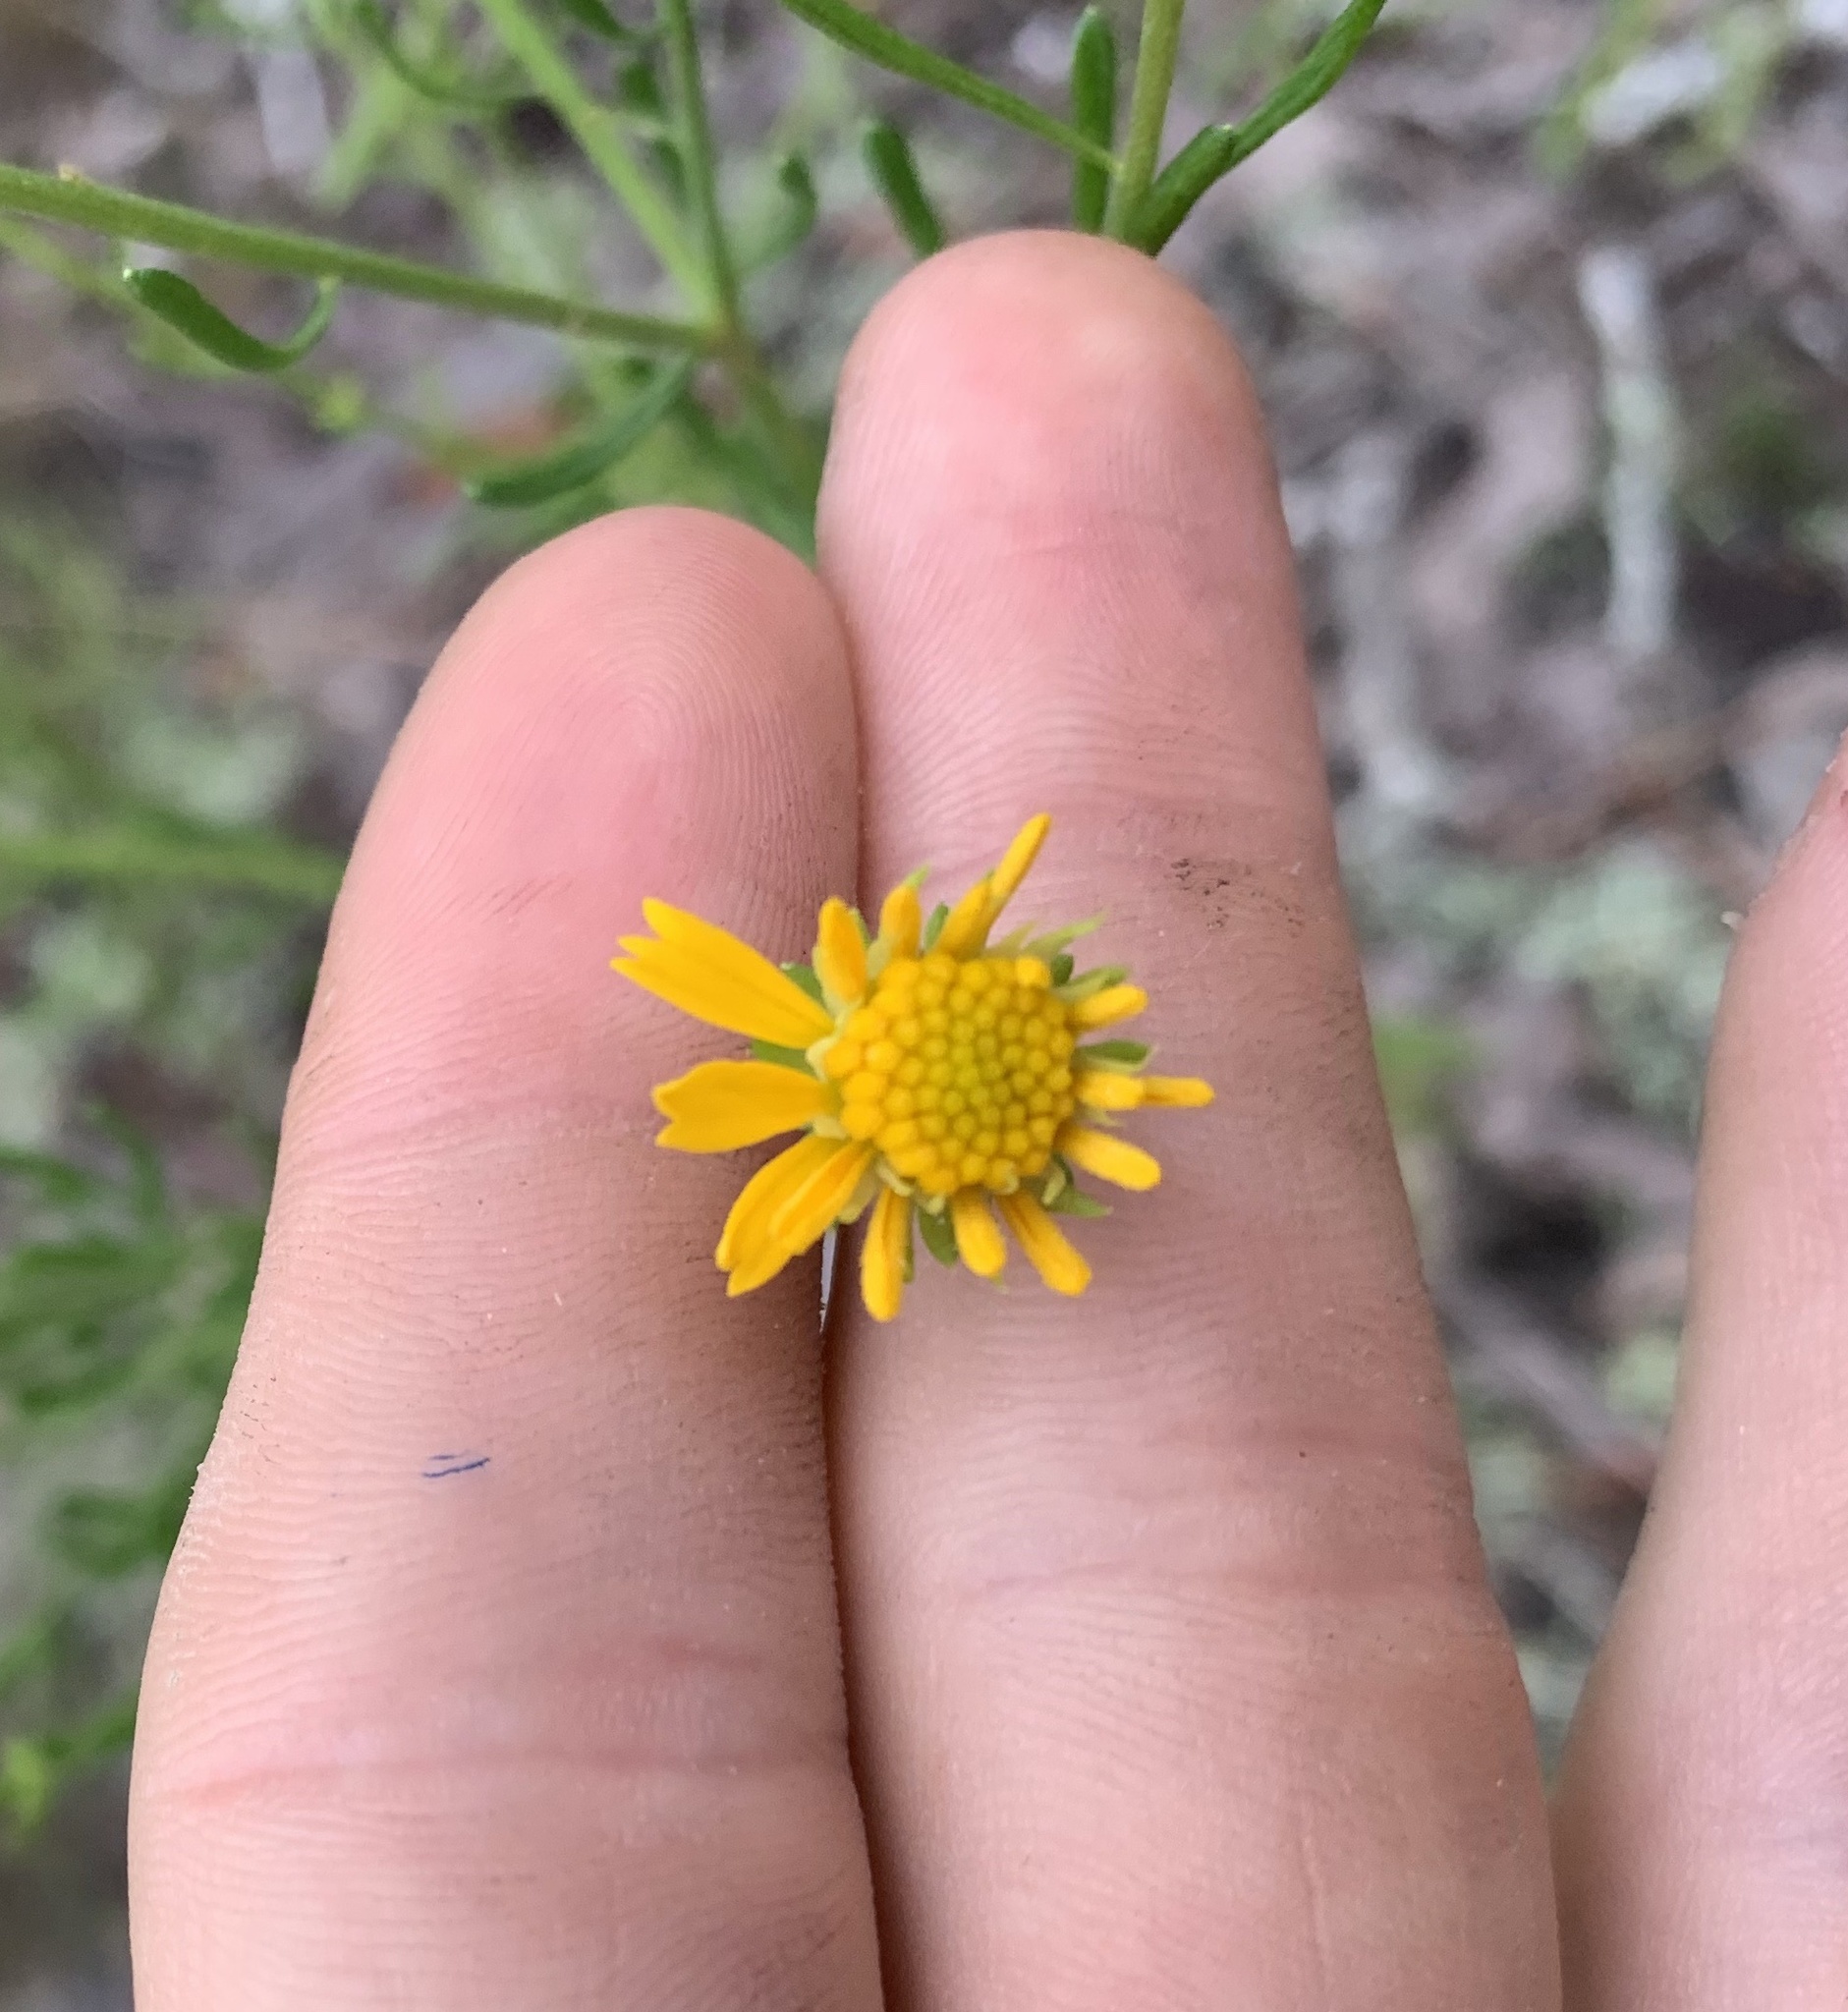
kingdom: Plantae
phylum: Tracheophyta
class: Magnoliopsida
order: Asterales
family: Asteraceae
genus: Balduina
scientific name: Balduina angustifolia
